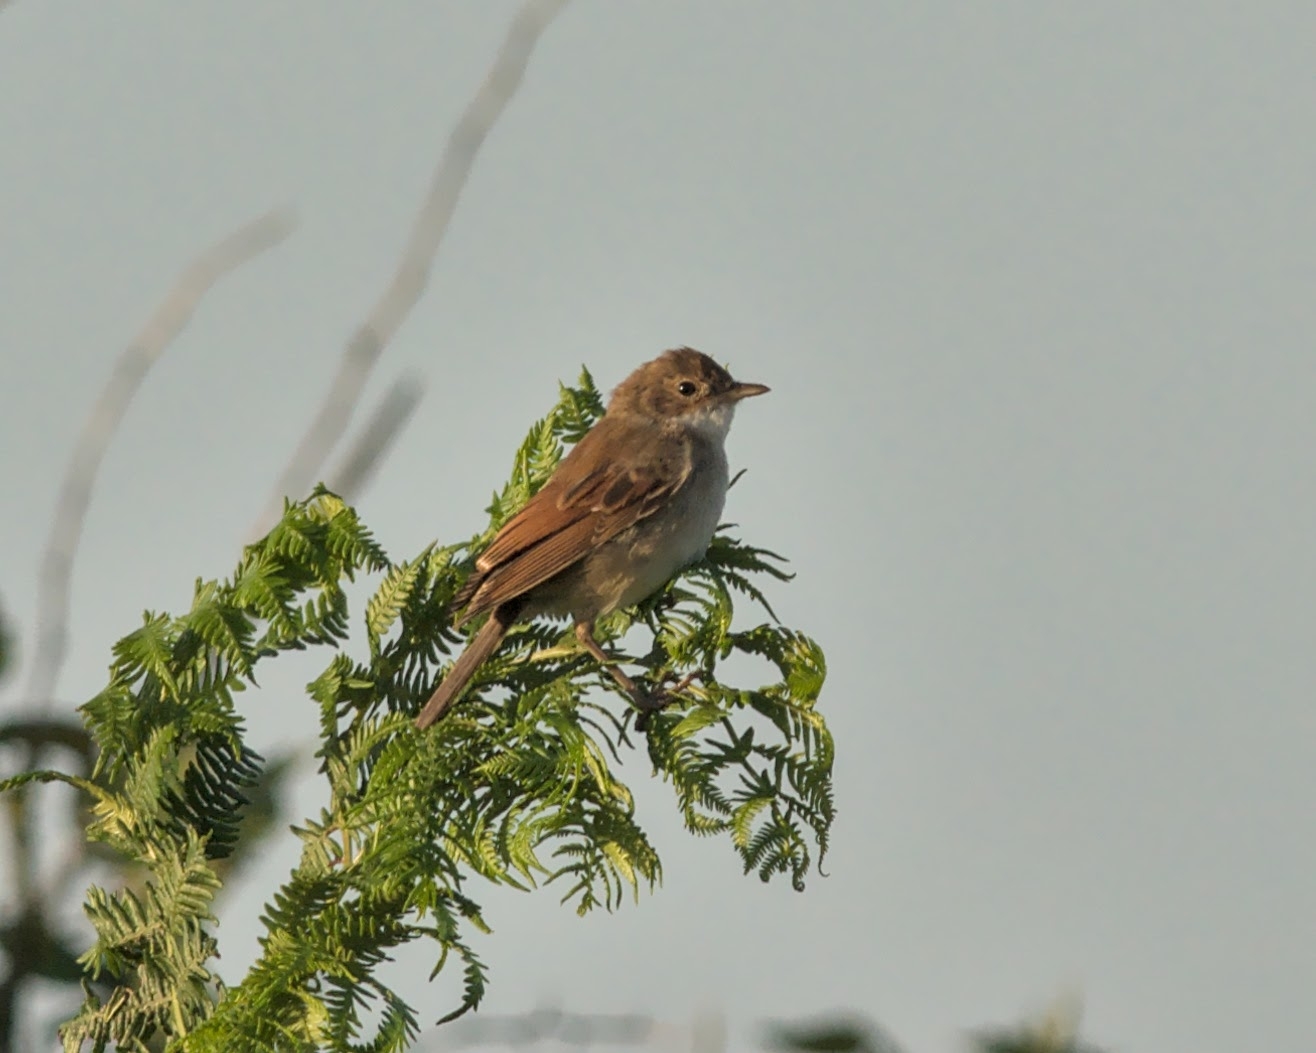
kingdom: Animalia
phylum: Chordata
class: Aves
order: Passeriformes
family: Sylviidae
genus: Sylvia
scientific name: Sylvia communis
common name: Common whitethroat
